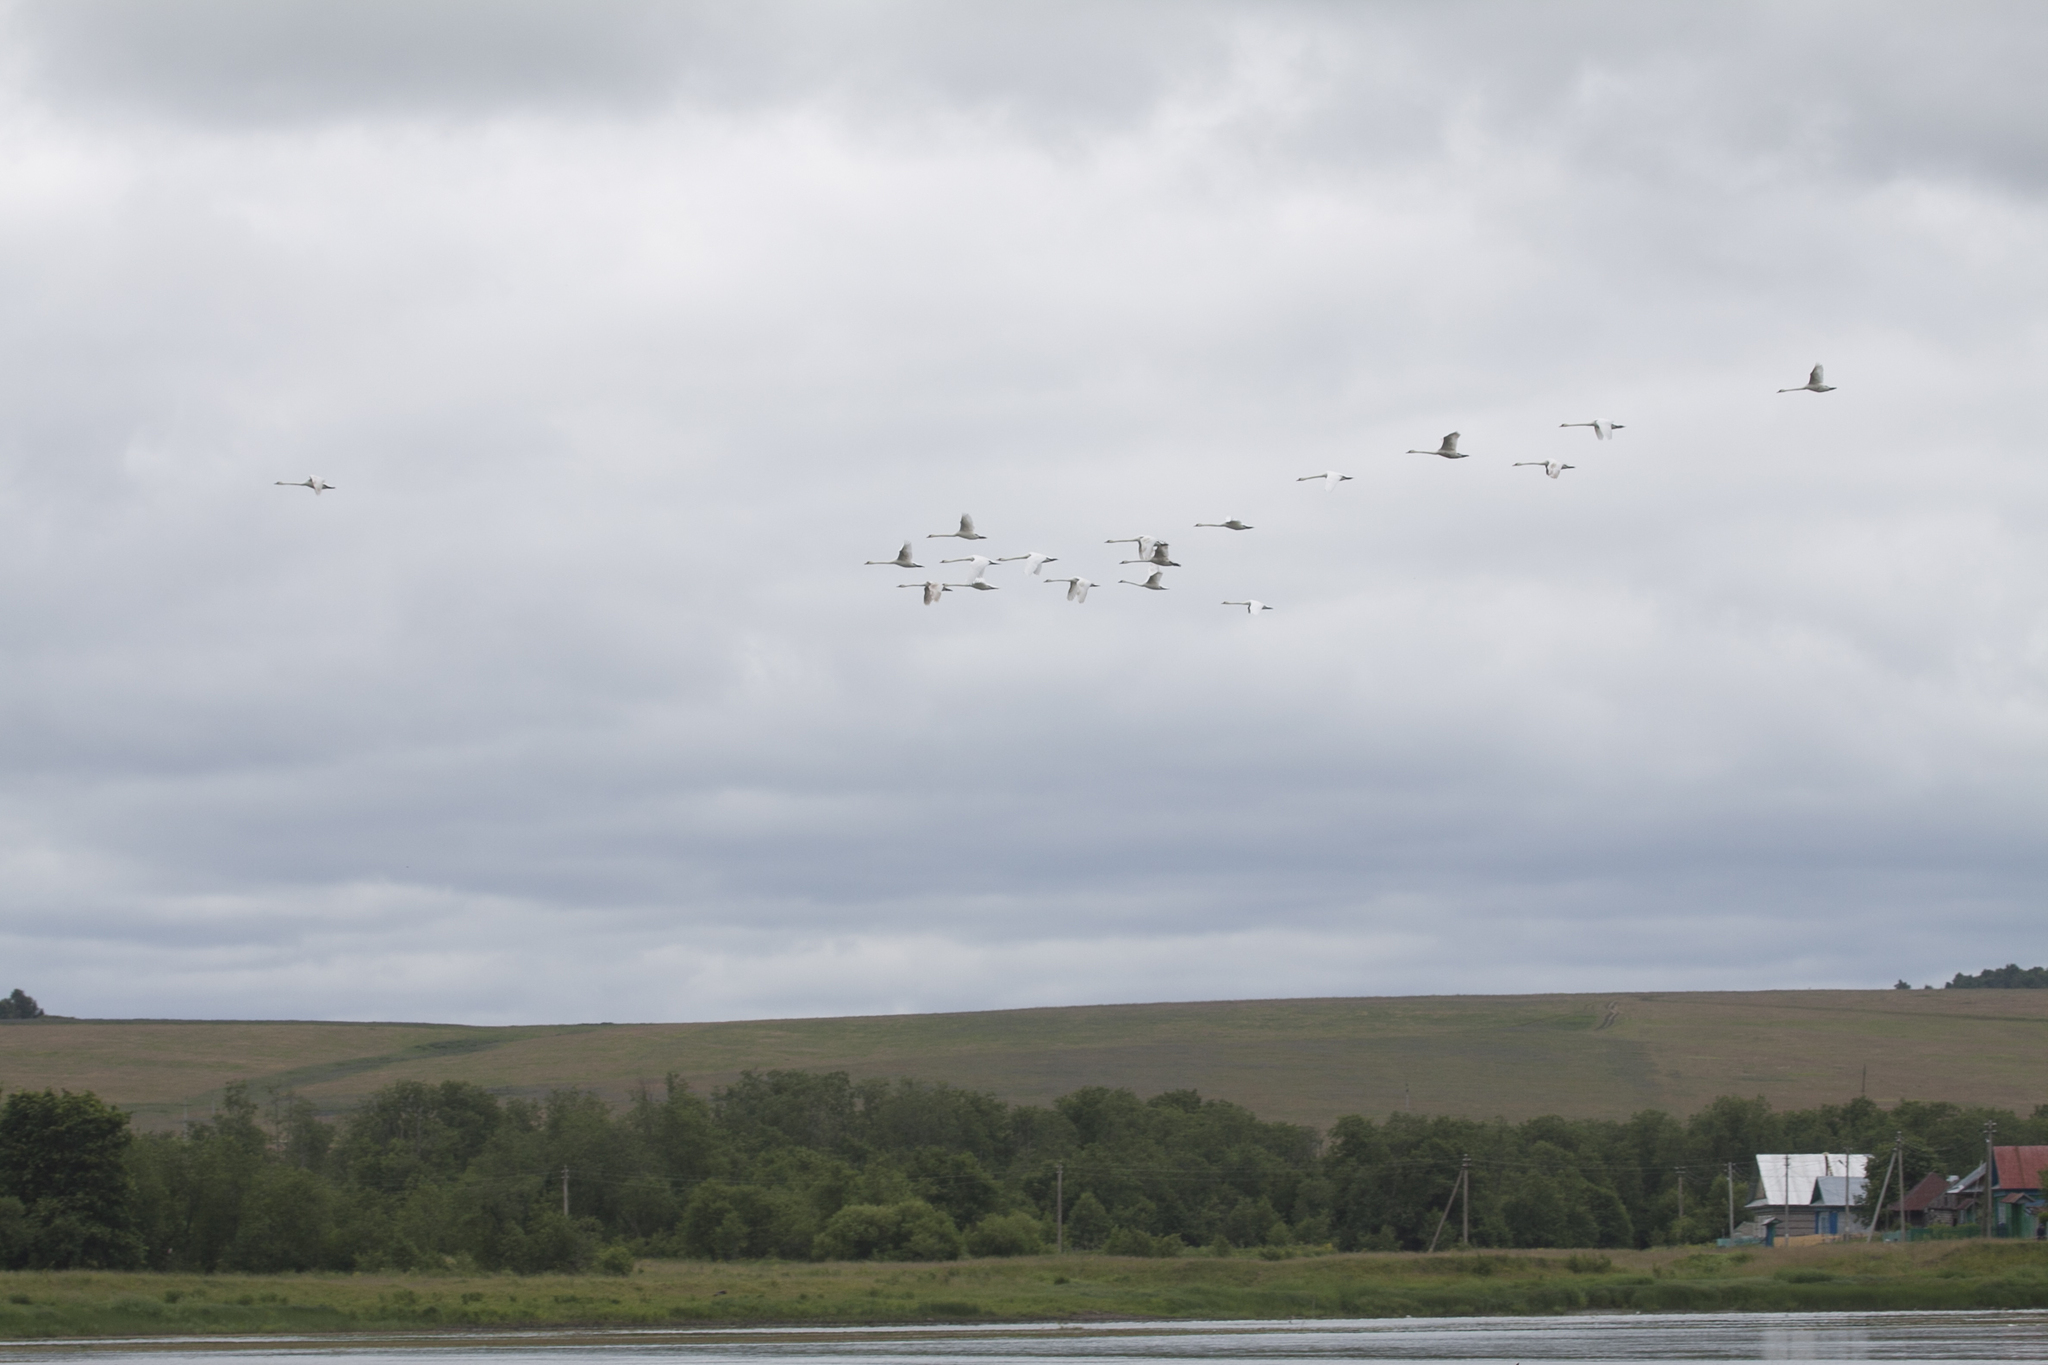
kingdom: Animalia
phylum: Chordata
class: Aves
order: Anseriformes
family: Anatidae
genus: Cygnus
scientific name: Cygnus olor
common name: Mute swan
